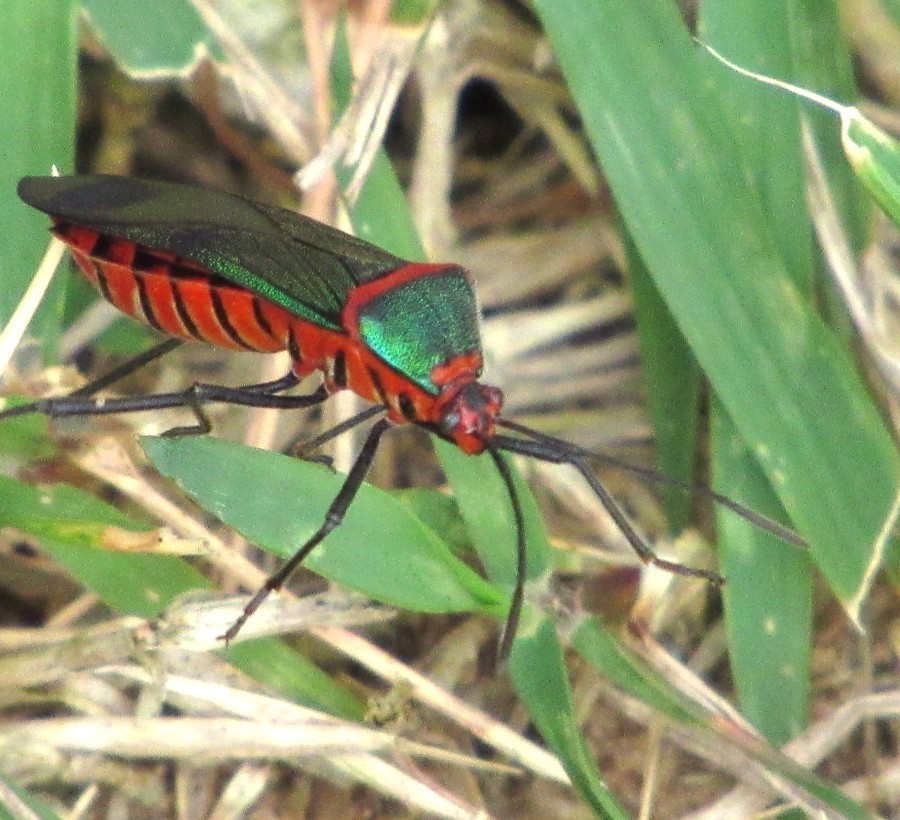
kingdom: Animalia
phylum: Arthropoda
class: Insecta
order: Hemiptera
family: Coreidae
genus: Sphictyrtus
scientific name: Sphictyrtus chrysis
